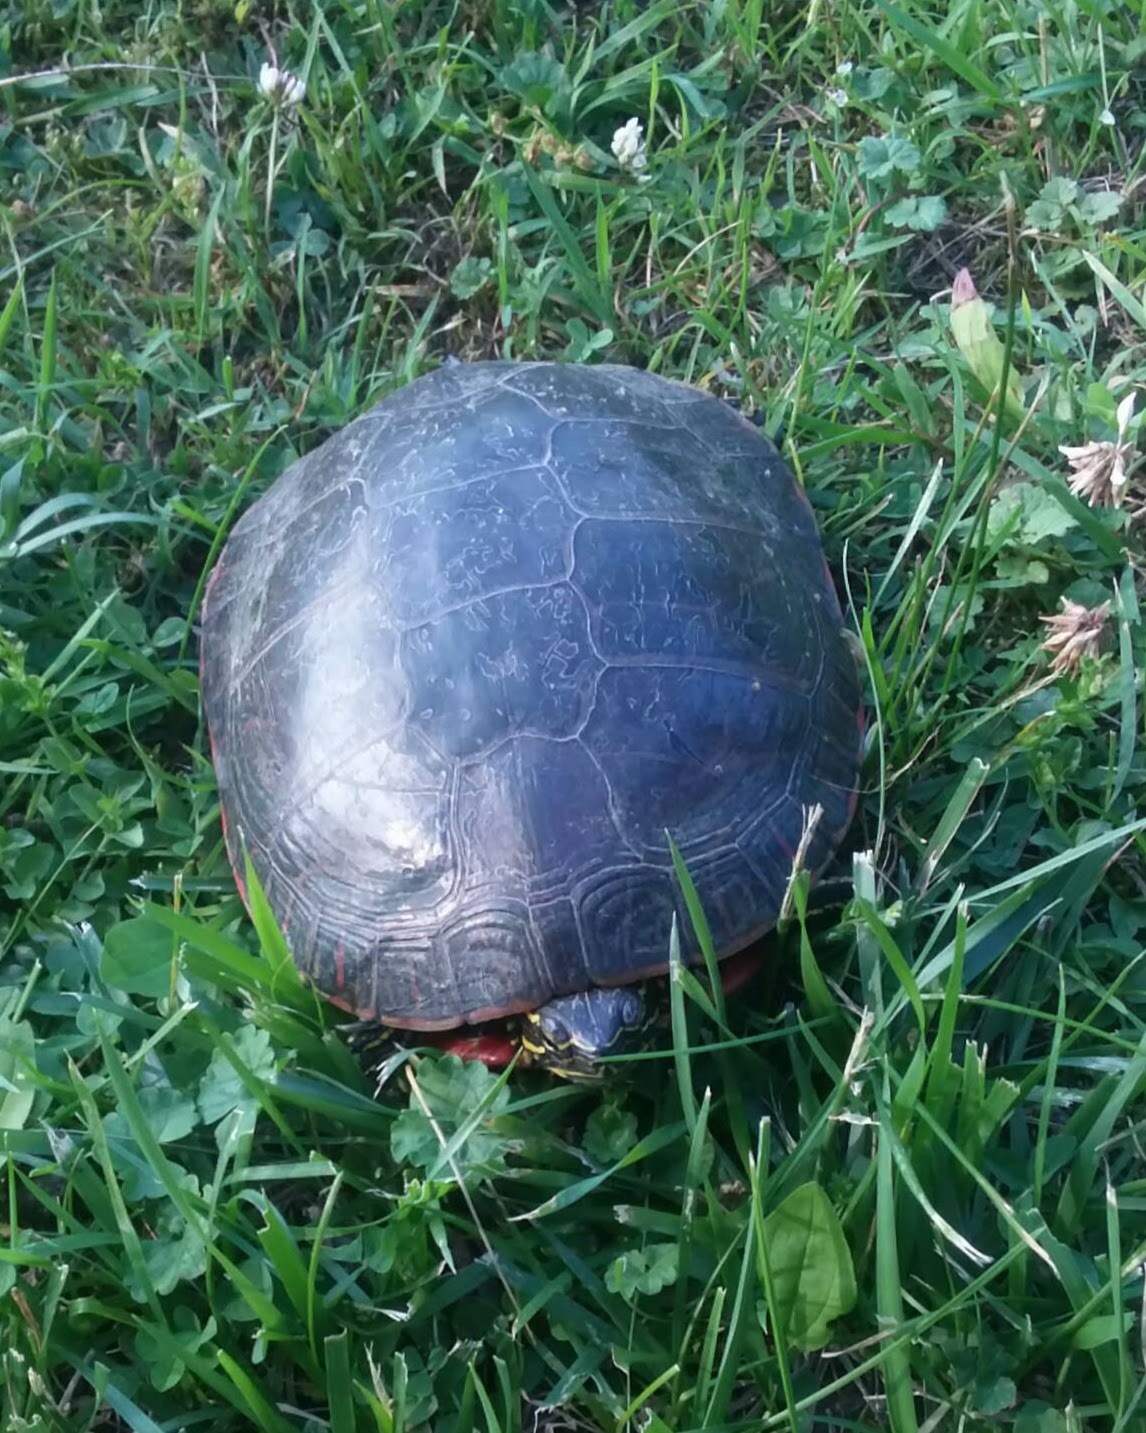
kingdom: Animalia
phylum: Chordata
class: Testudines
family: Emydidae
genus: Chrysemys
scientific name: Chrysemys picta
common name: Painted turtle
